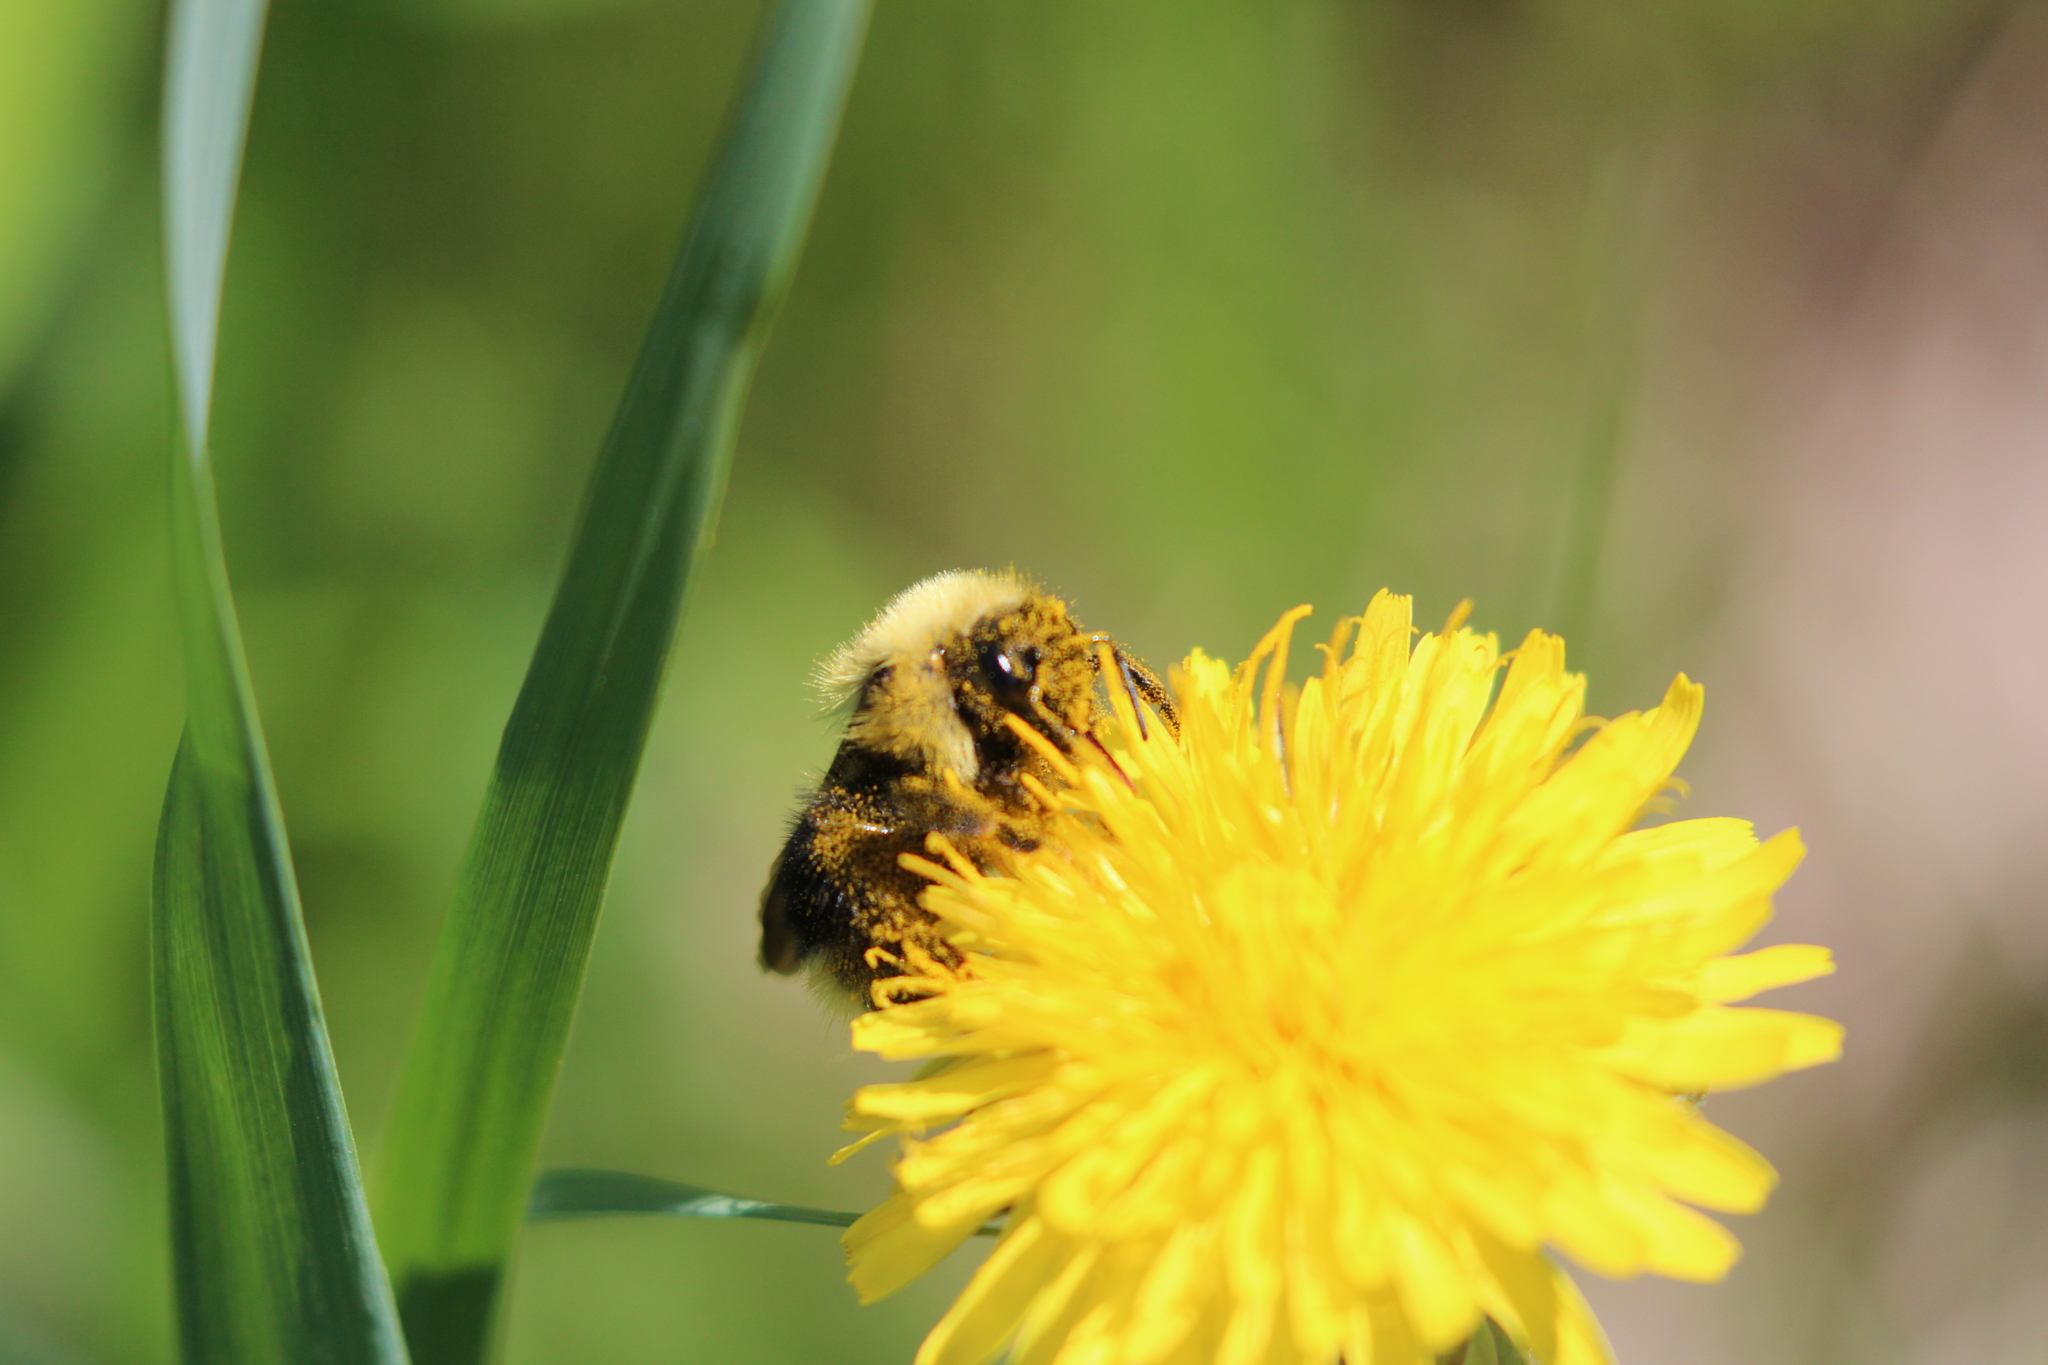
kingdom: Animalia
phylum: Arthropoda
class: Insecta
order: Hymenoptera
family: Apidae
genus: Bombus
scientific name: Bombus flavidus
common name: Fernald cuckoo bumble bee
